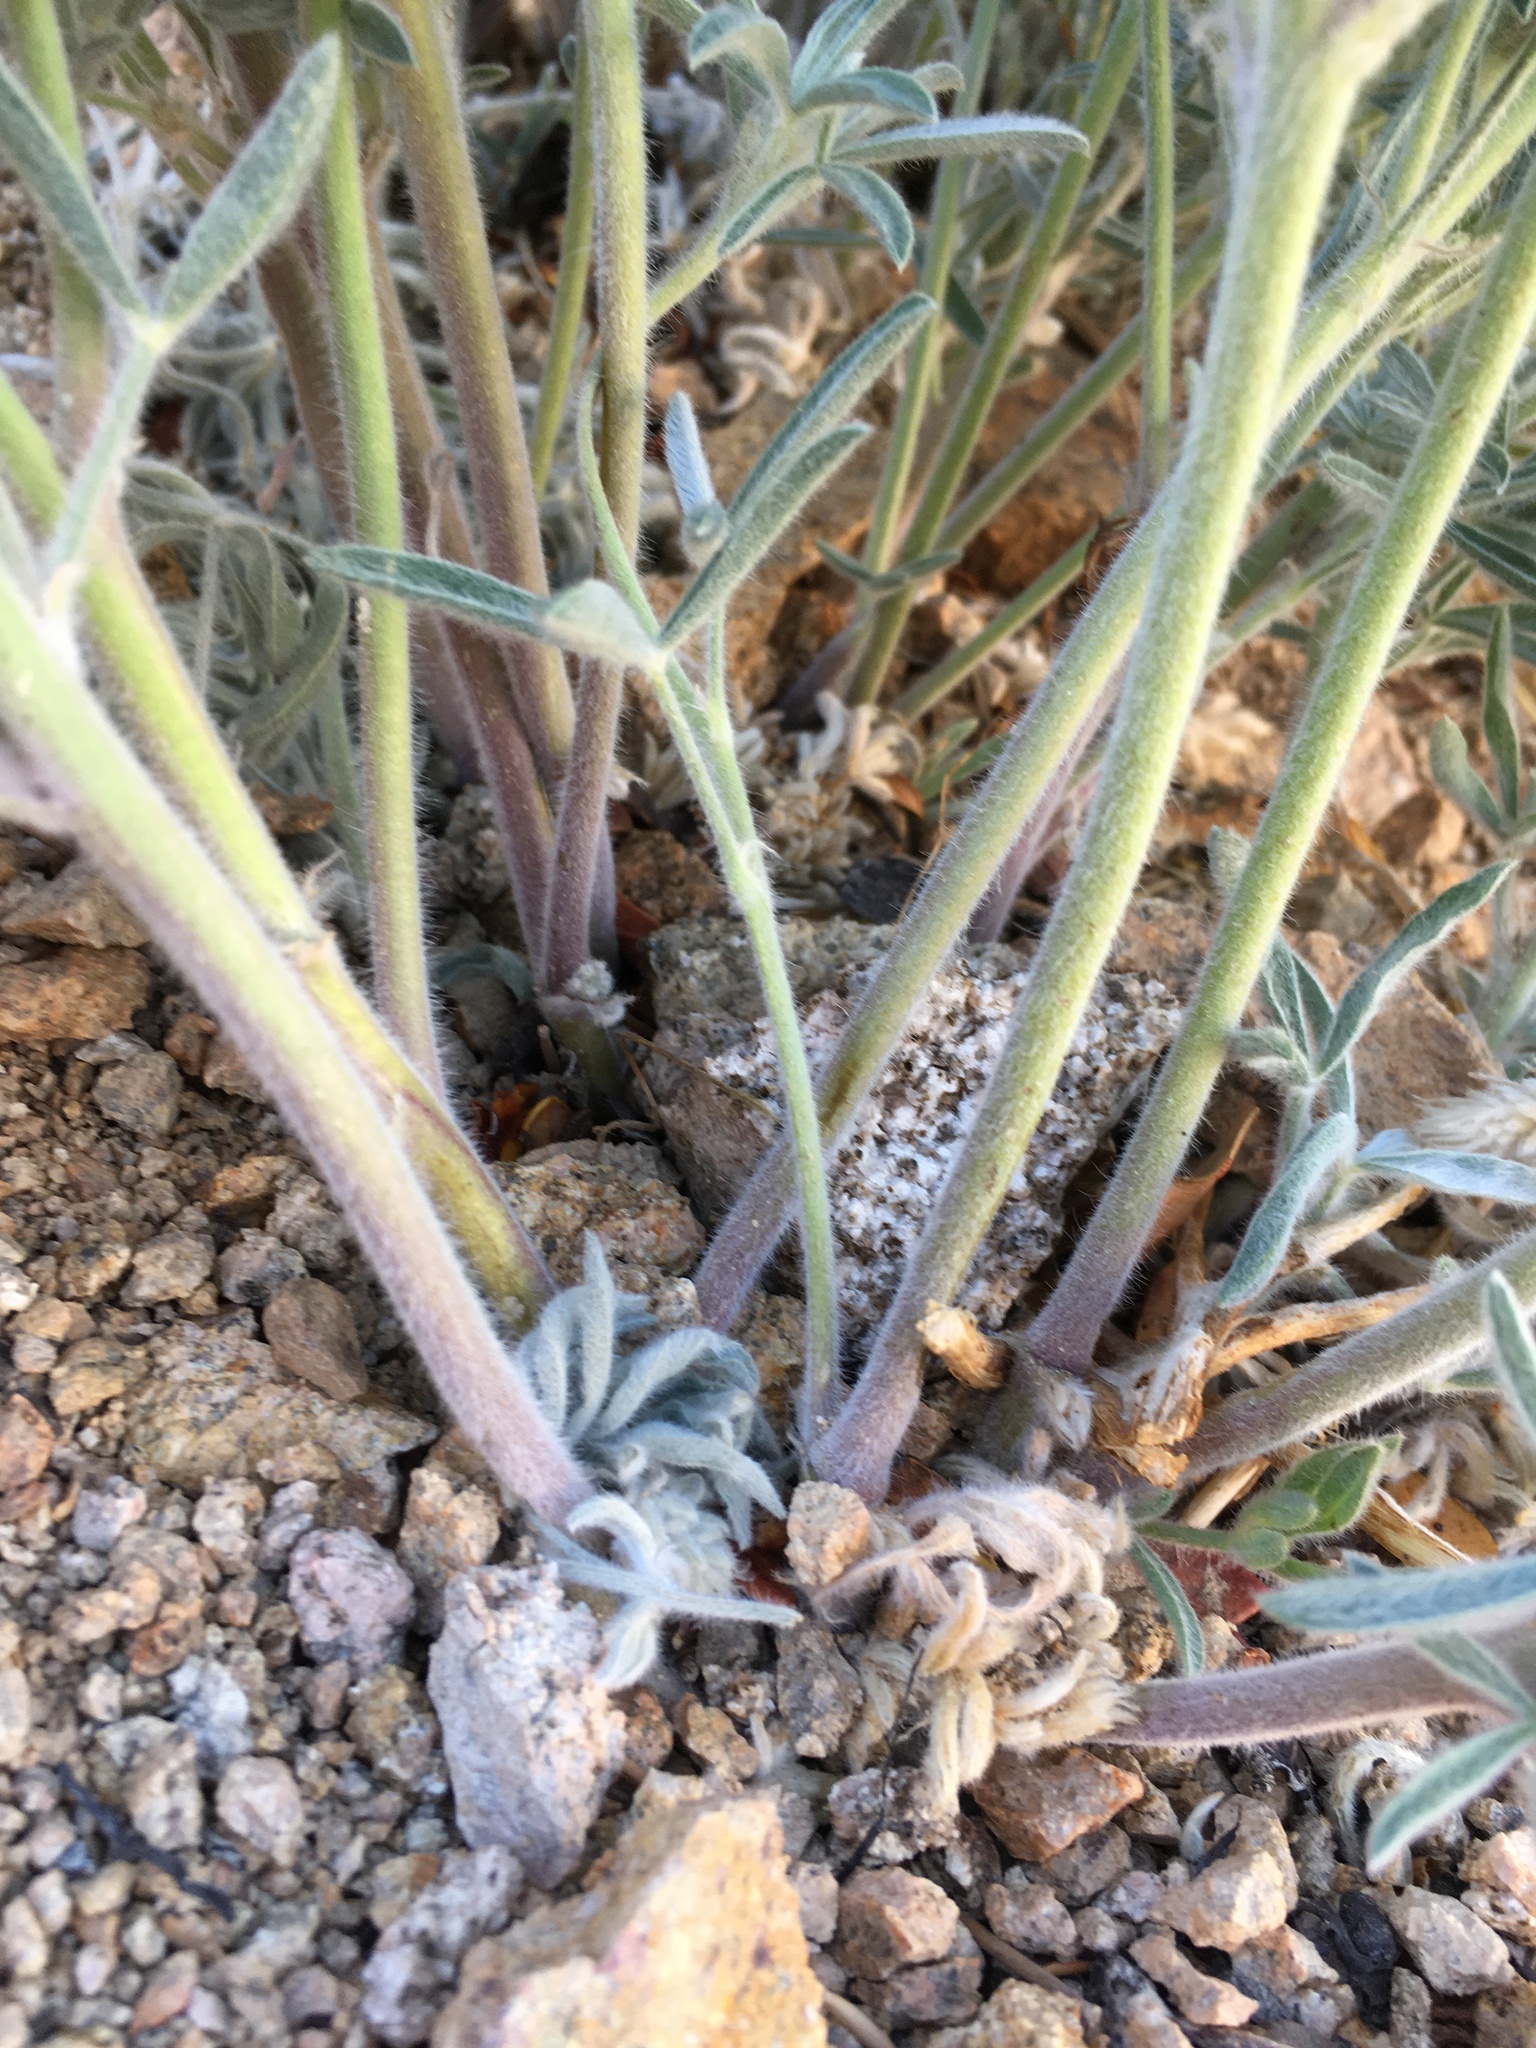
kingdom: Plantae
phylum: Tracheophyta
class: Magnoliopsida
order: Fabales
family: Fabaceae
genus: Lupinus
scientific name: Lupinus padre-crowleyi
